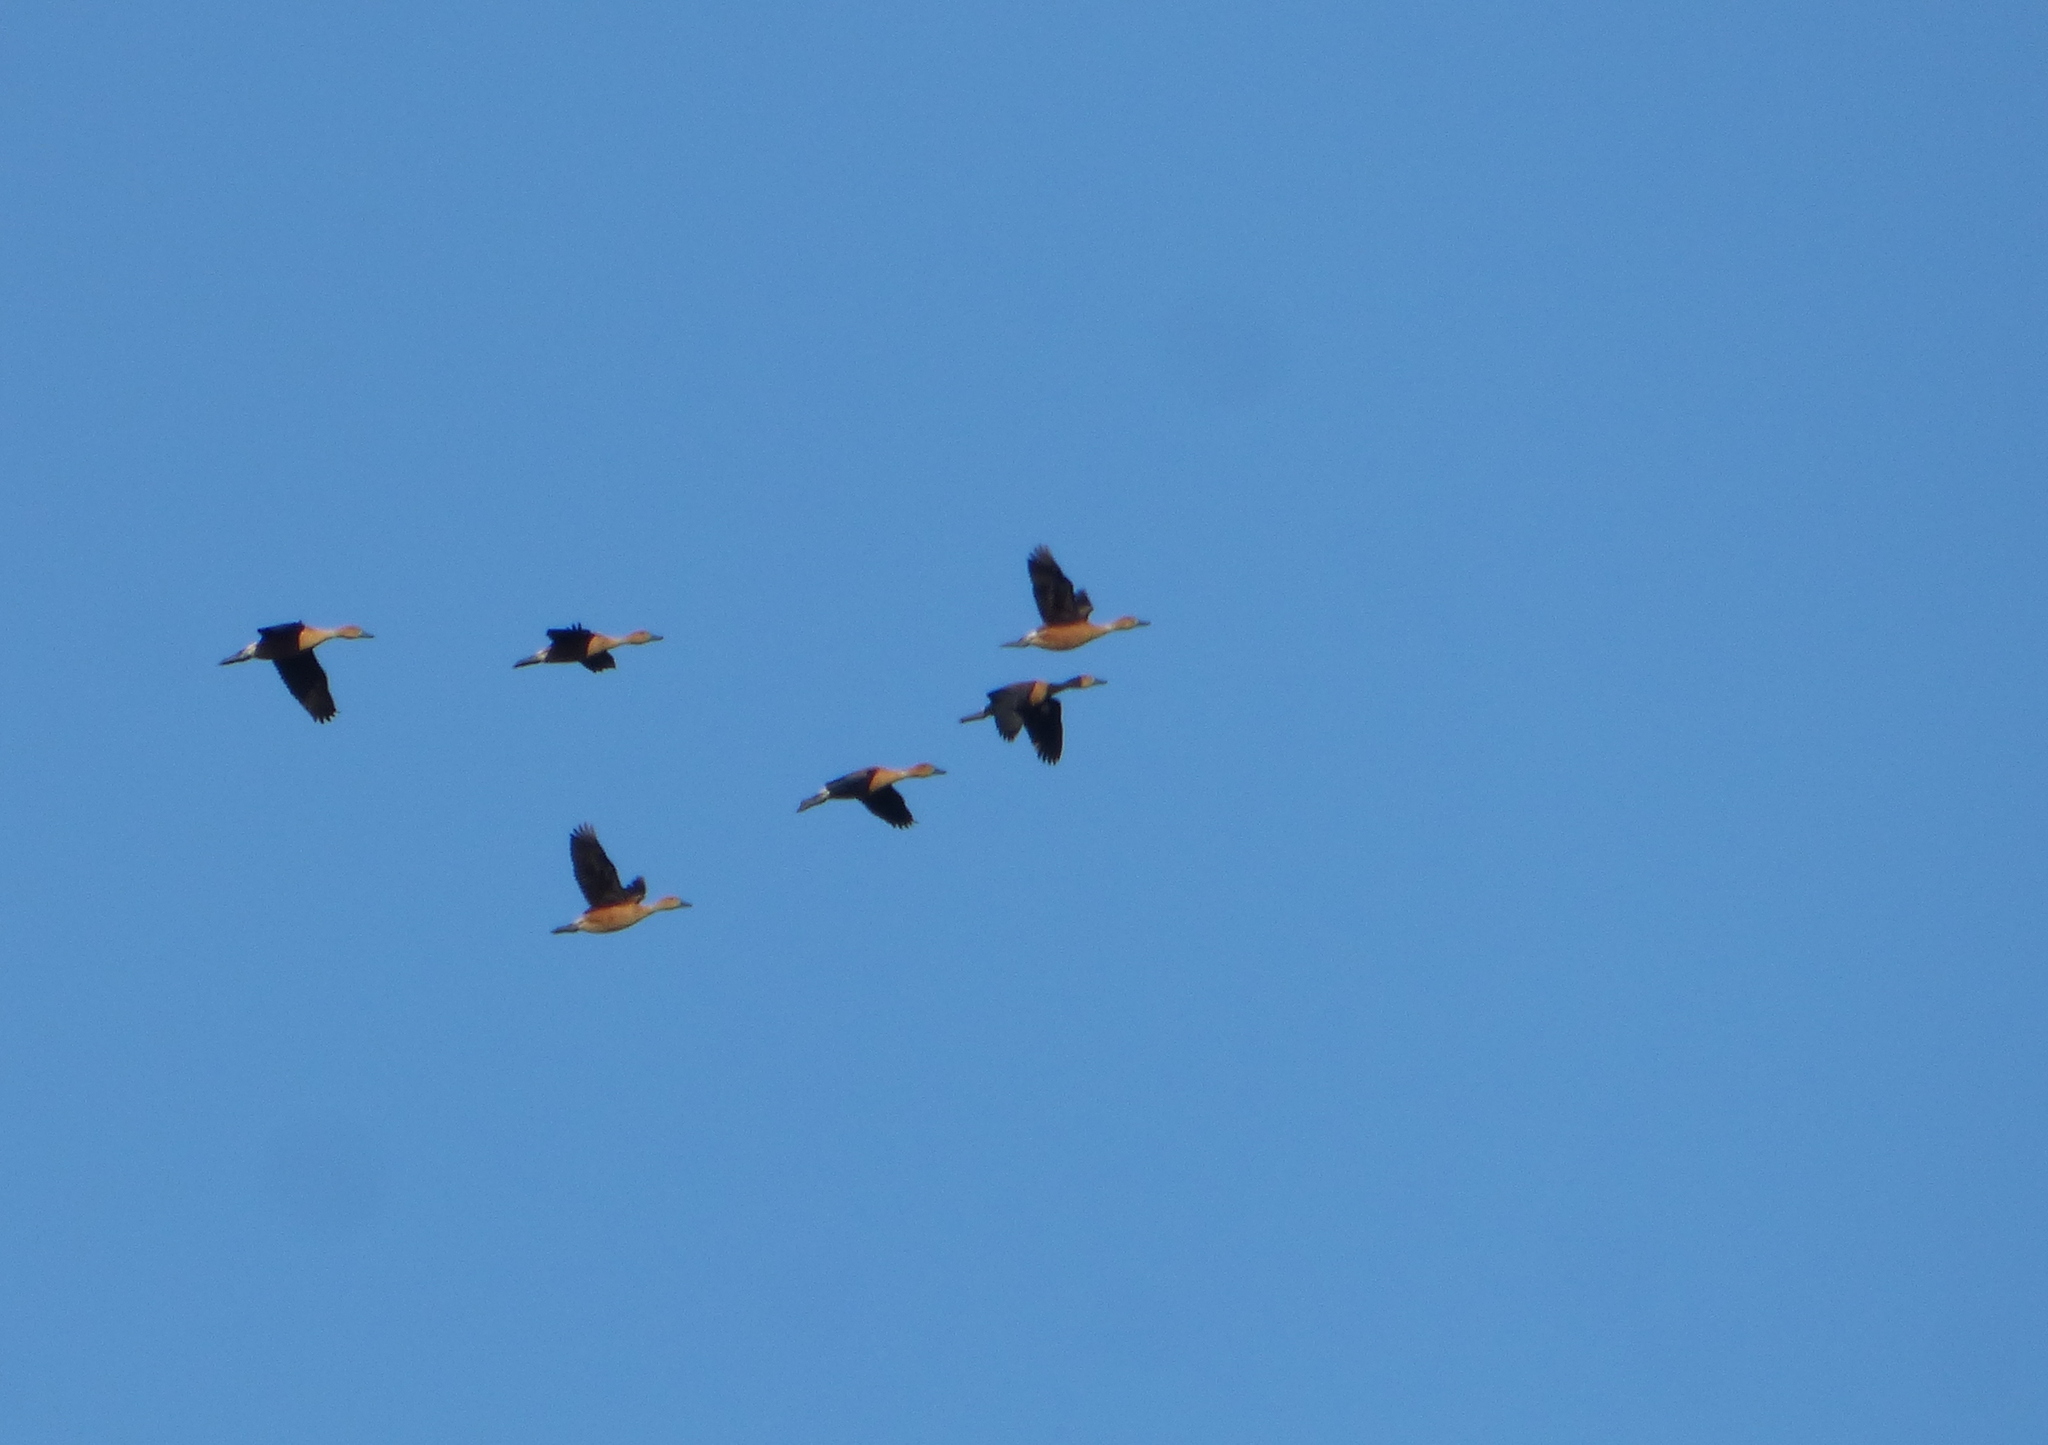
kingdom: Animalia
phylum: Chordata
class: Aves
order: Anseriformes
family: Anatidae
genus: Dendrocygna
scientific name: Dendrocygna bicolor
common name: Fulvous whistling duck
